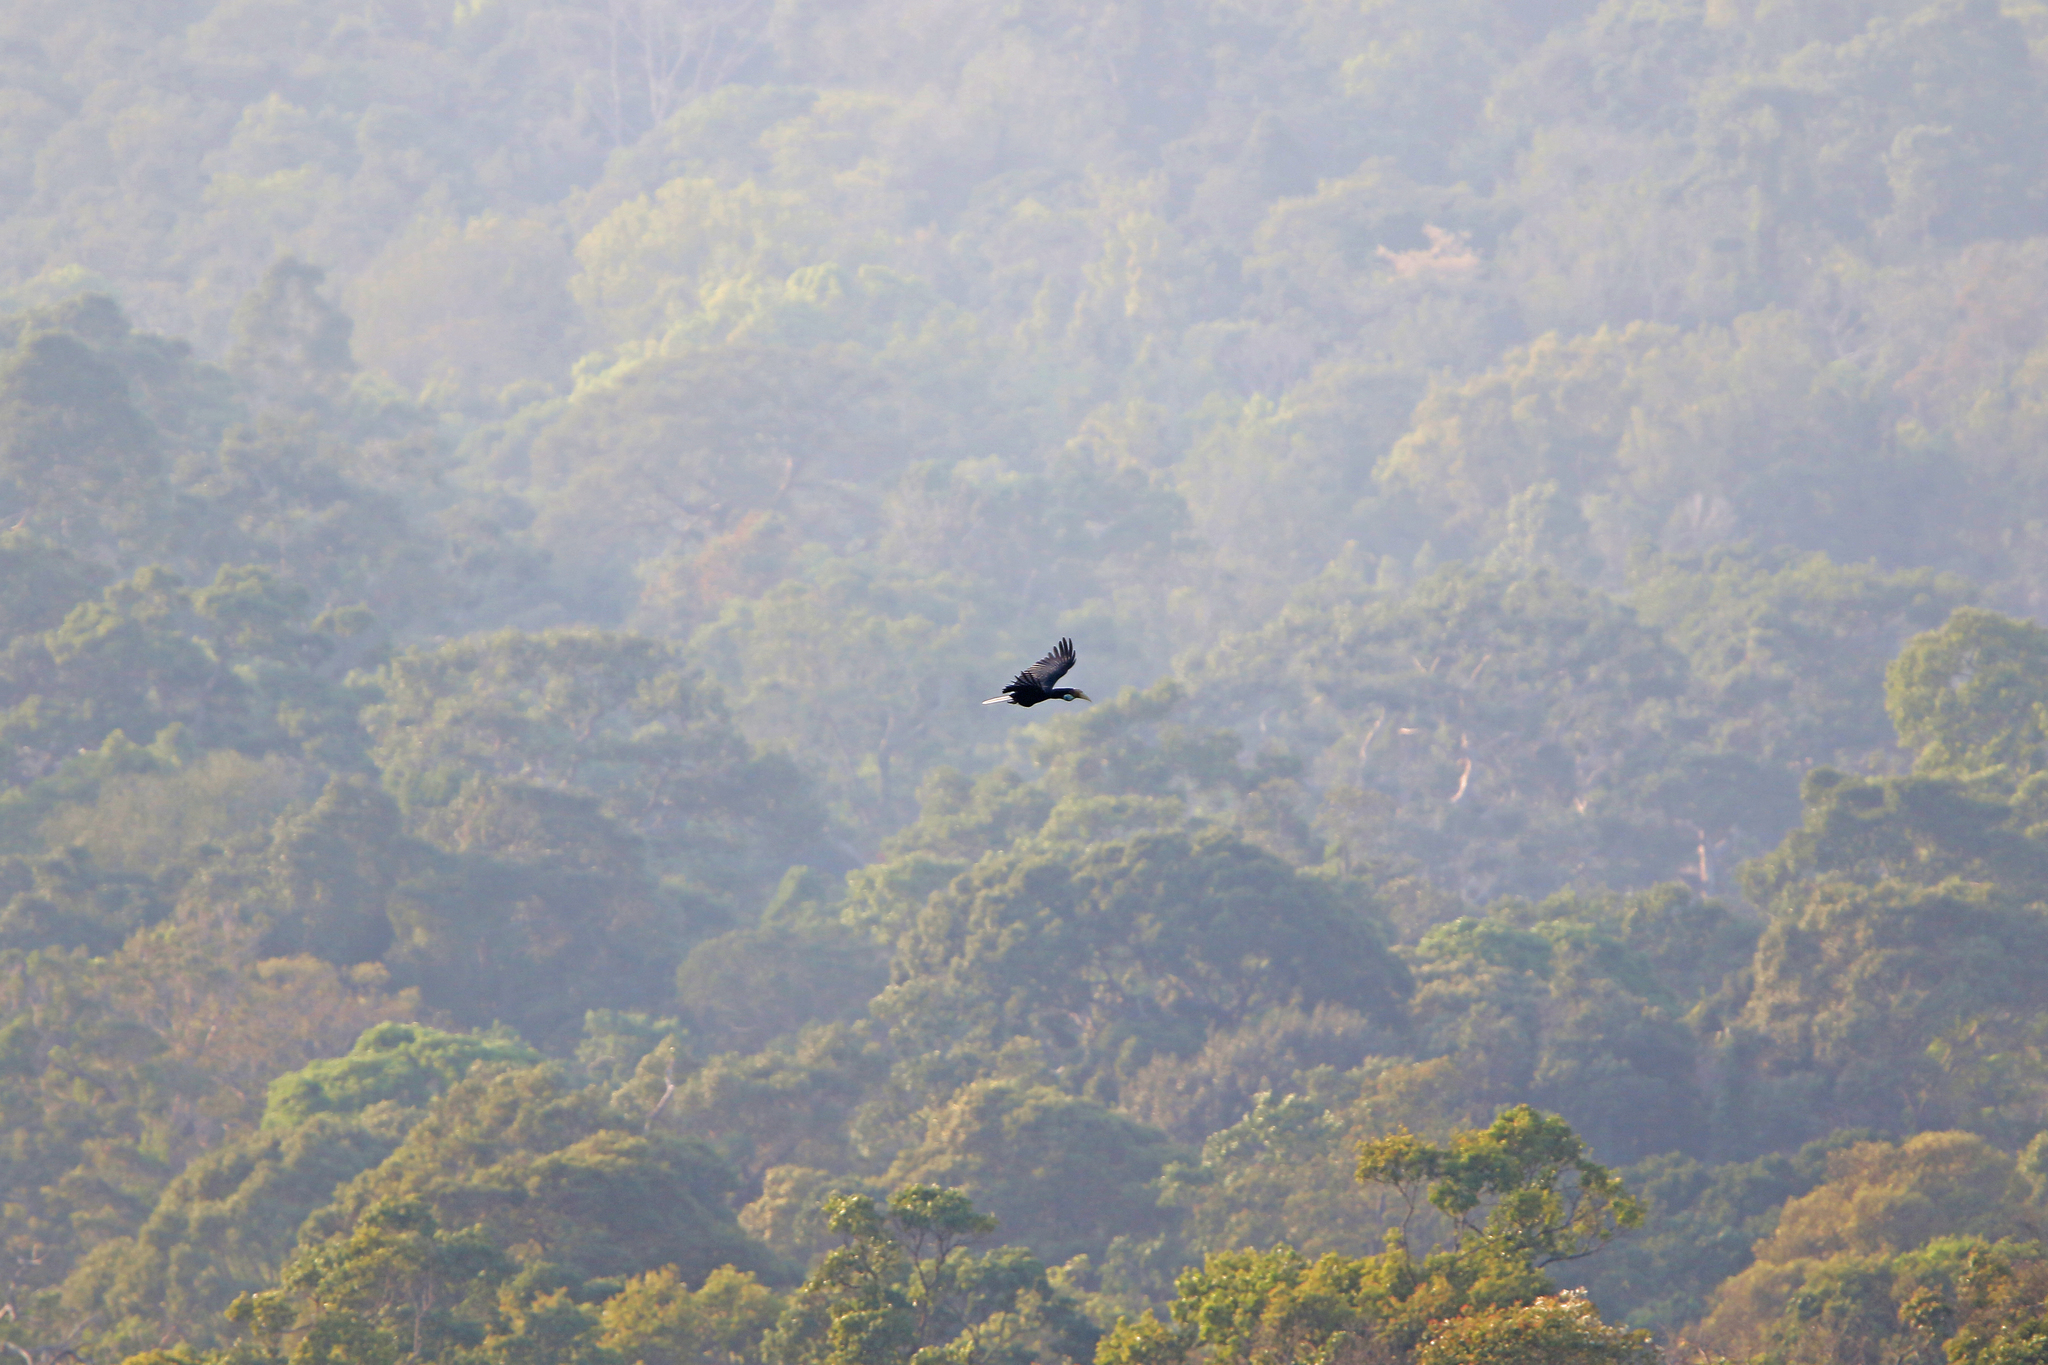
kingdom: Animalia
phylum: Chordata
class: Aves
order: Bucerotiformes
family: Bucerotidae
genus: Rhyticeros
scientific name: Rhyticeros undulatus
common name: Wreathed hornbill
